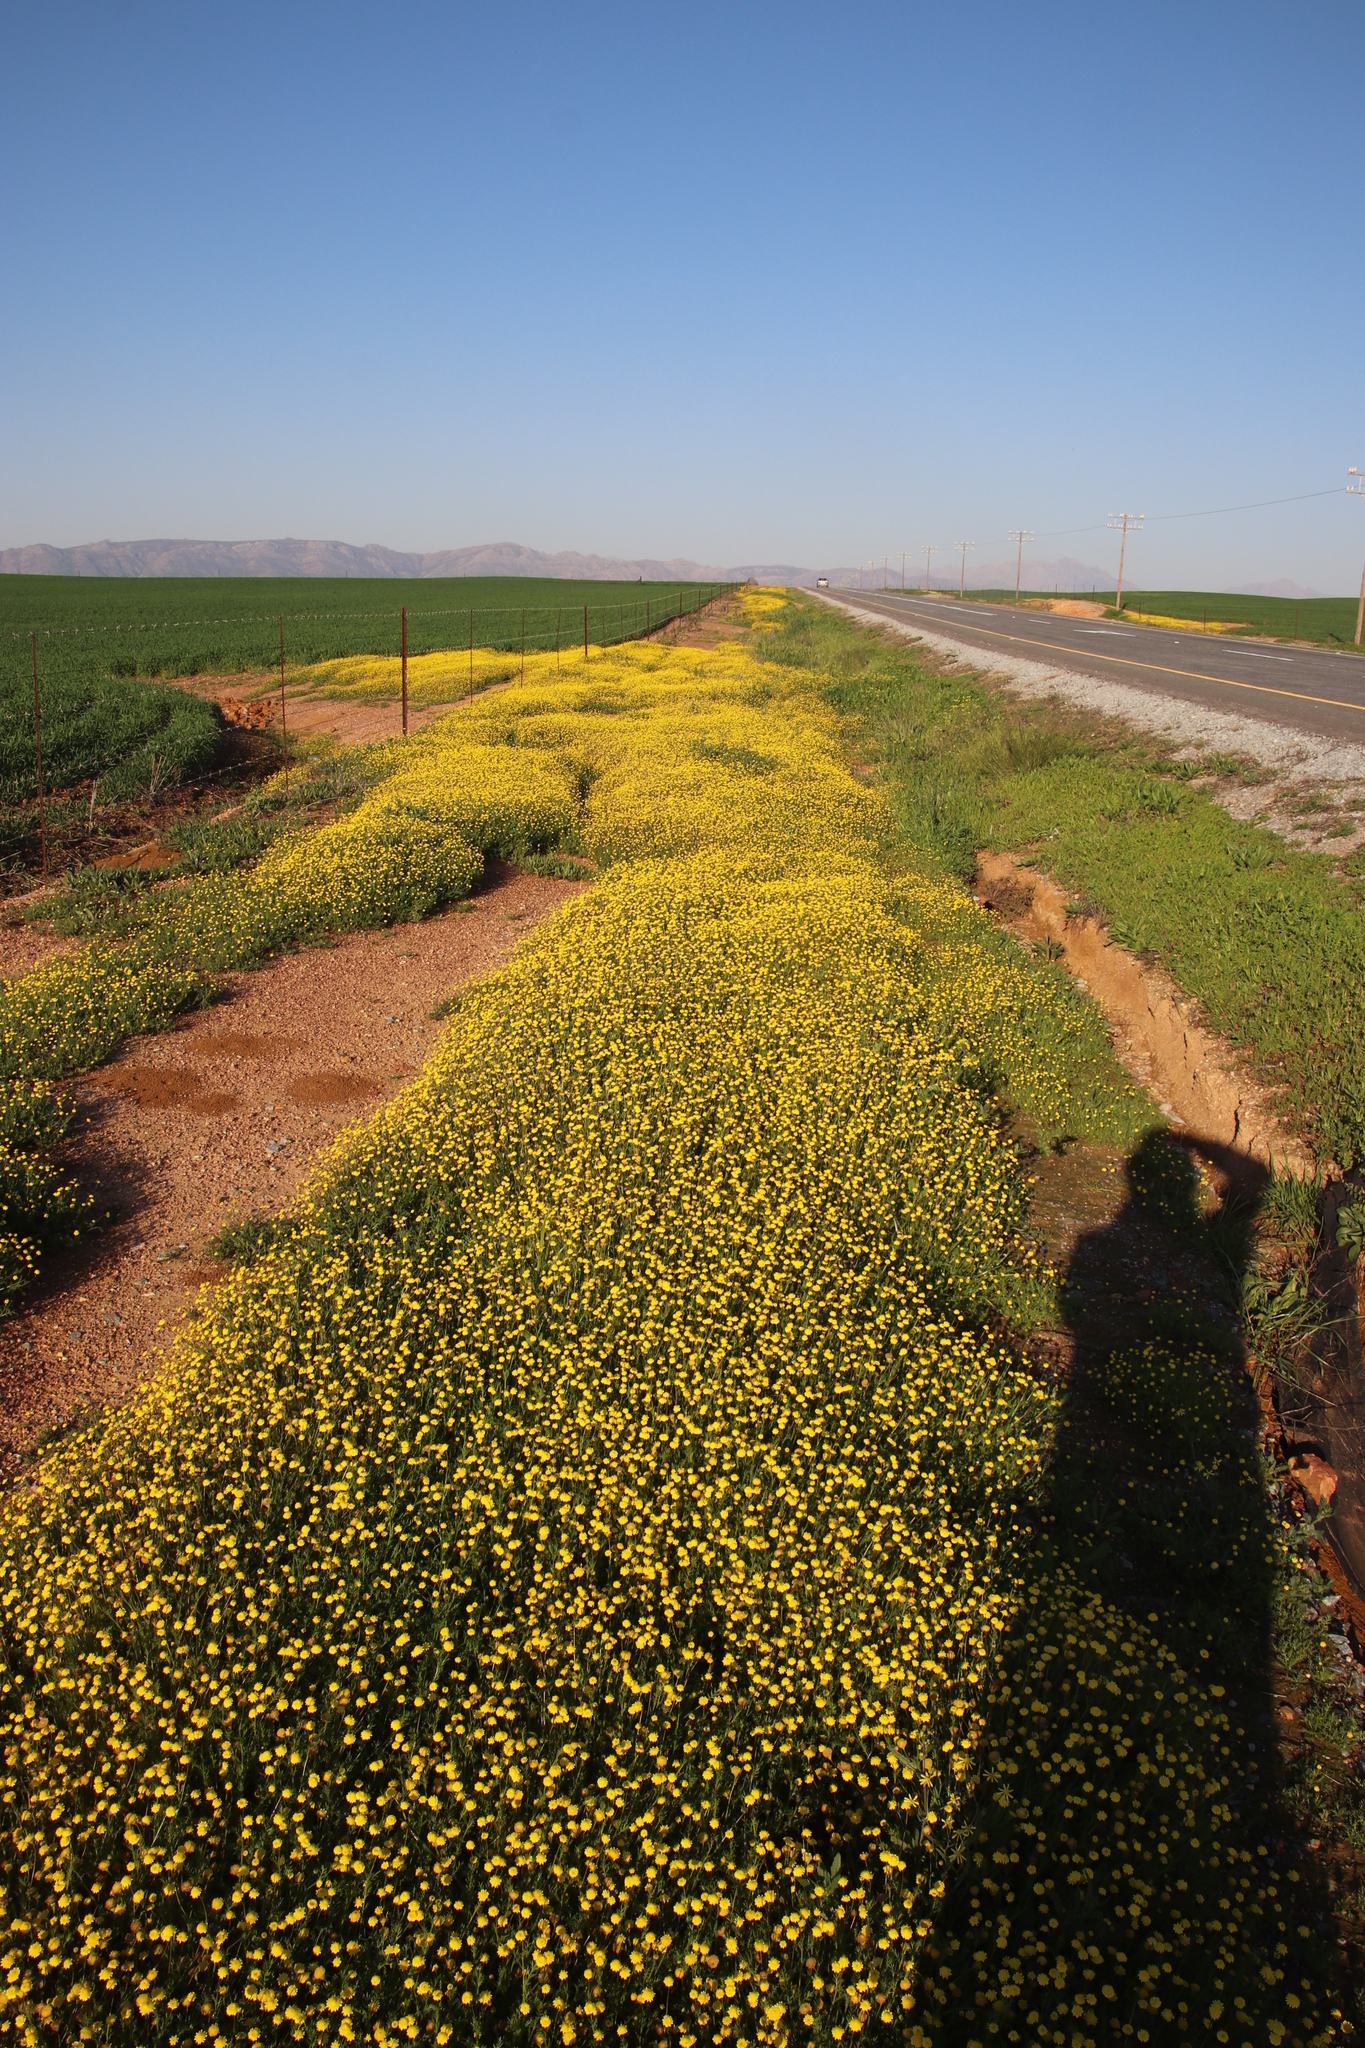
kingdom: Plantae
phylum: Tracheophyta
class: Magnoliopsida
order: Asterales
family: Asteraceae
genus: Cotula
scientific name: Cotula pruinosa
